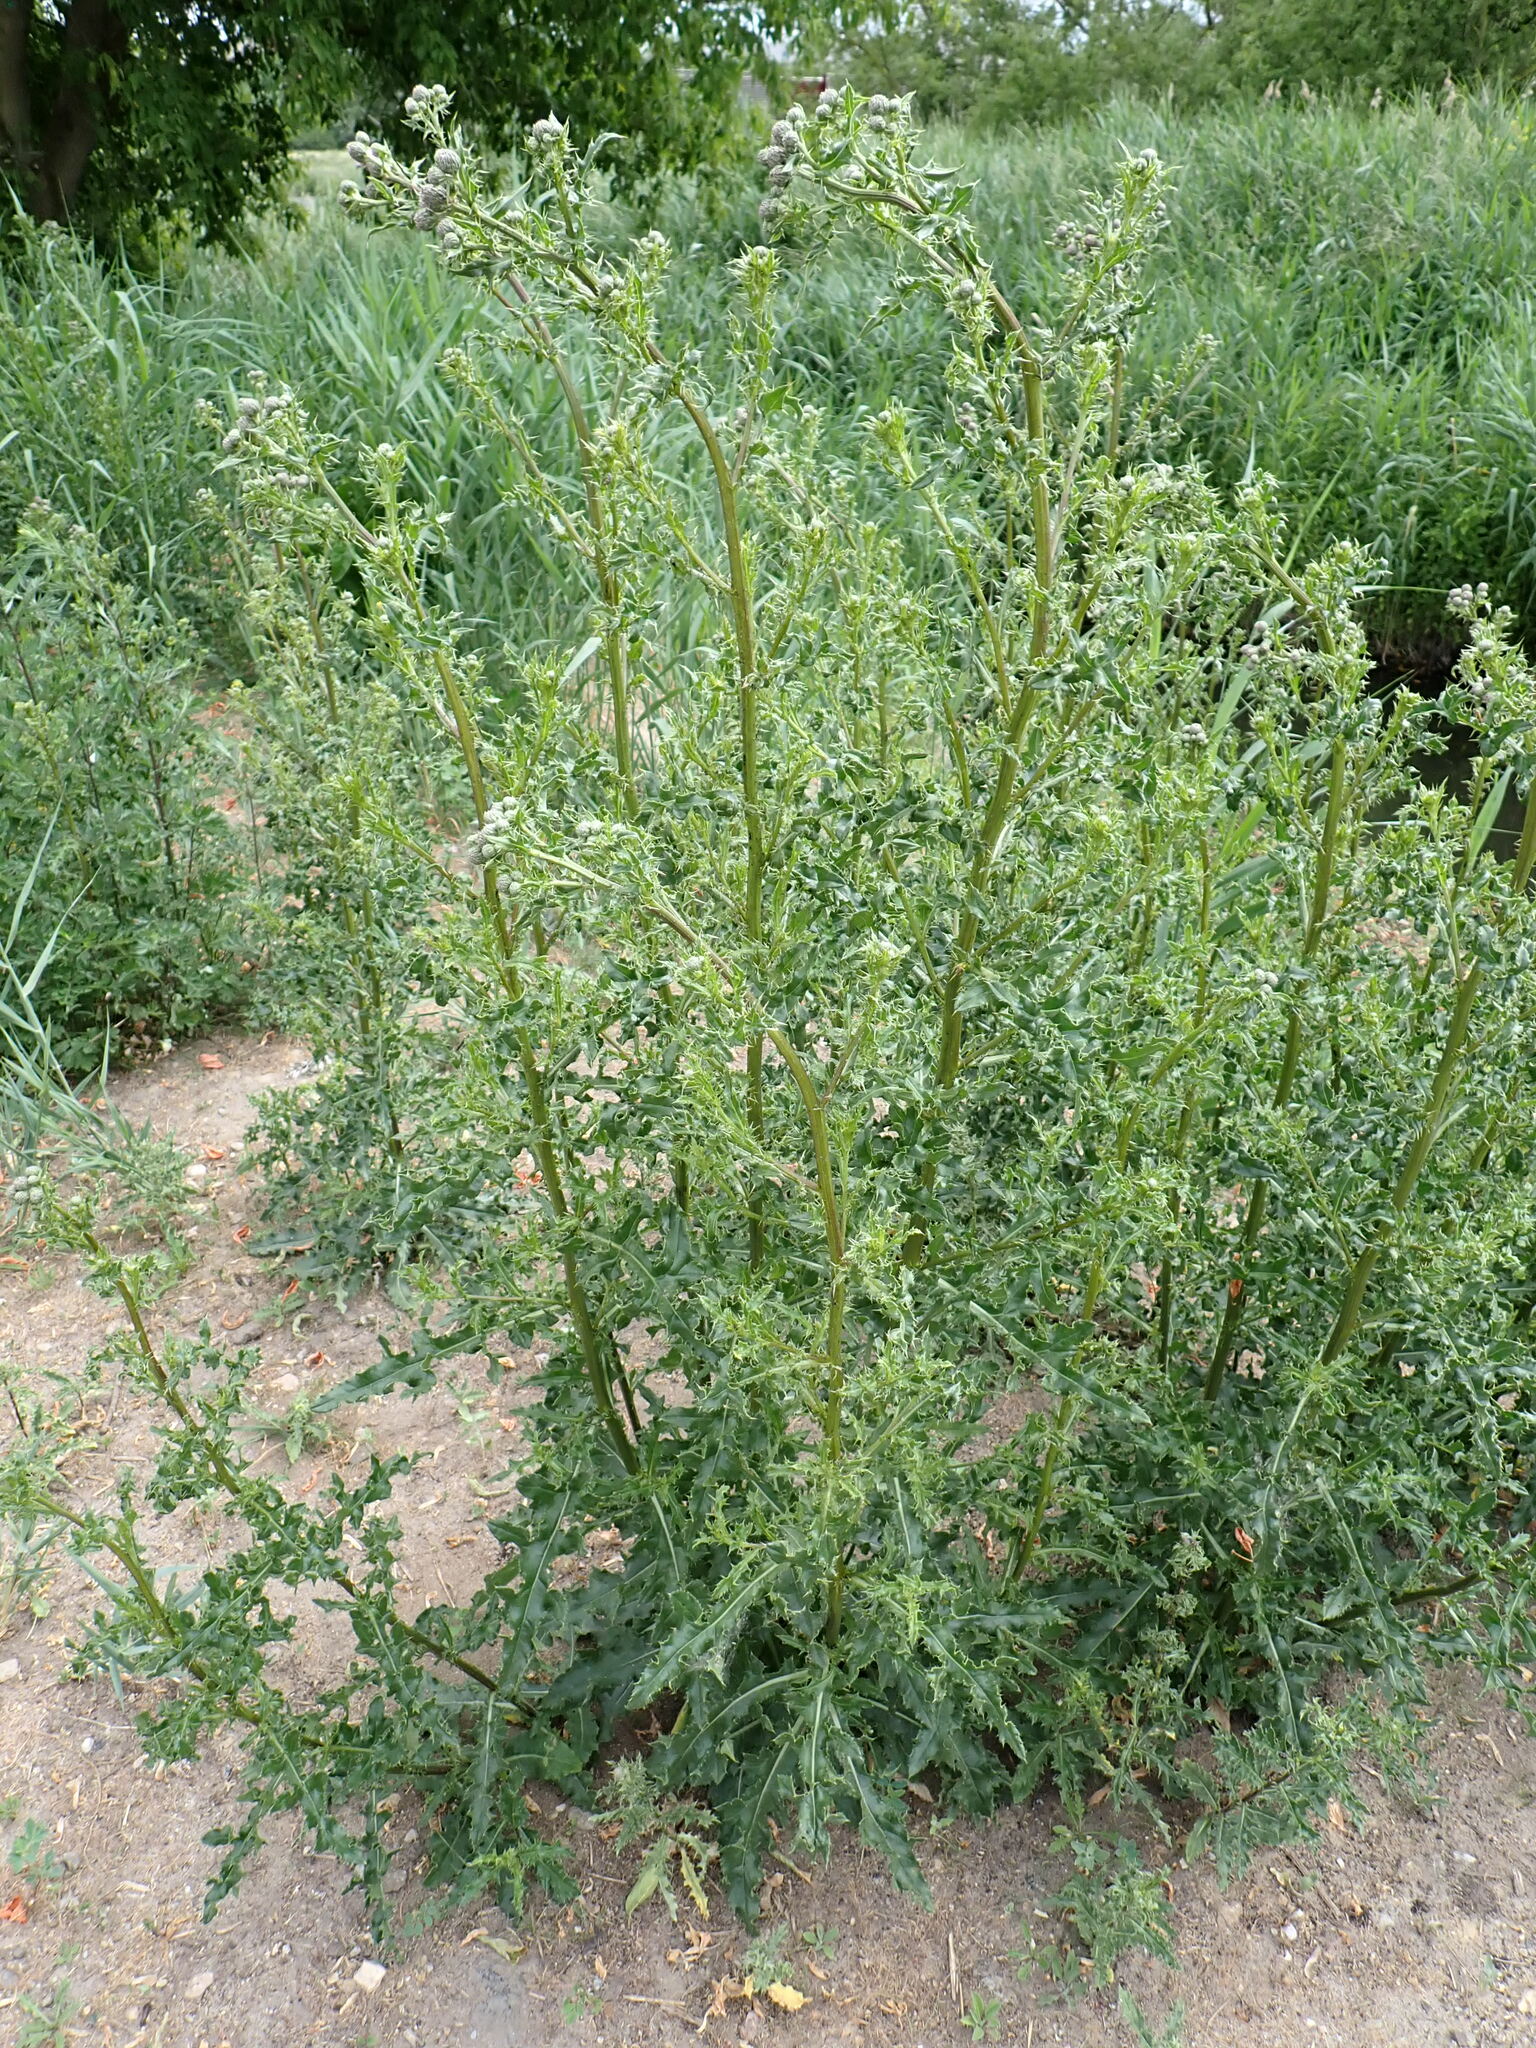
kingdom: Plantae
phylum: Tracheophyta
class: Magnoliopsida
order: Asterales
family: Asteraceae
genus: Cirsium
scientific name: Cirsium arvense
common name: Creeping thistle
